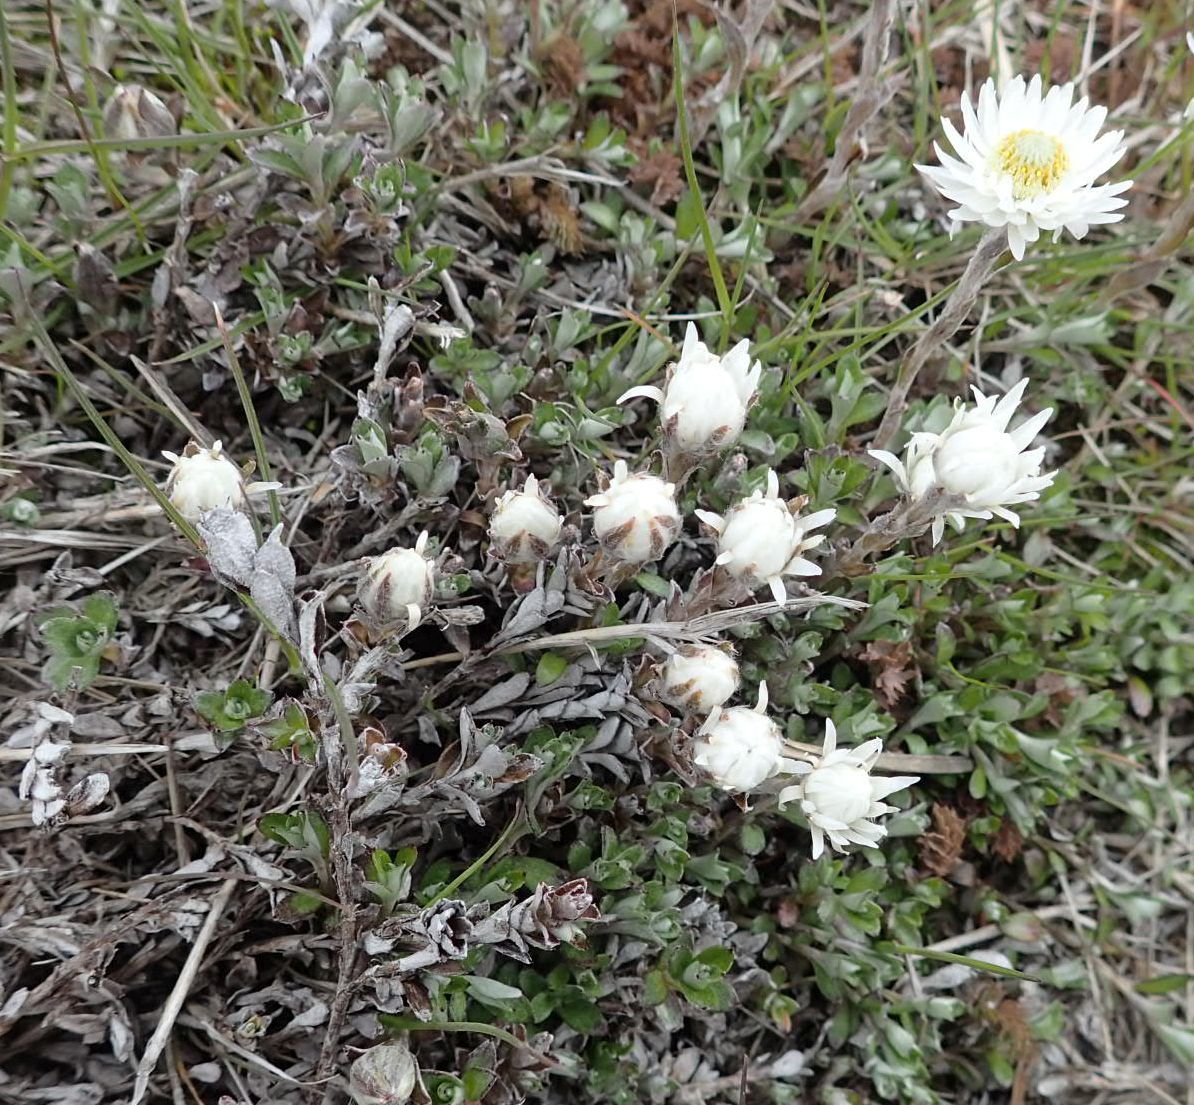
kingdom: Plantae
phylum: Tracheophyta
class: Magnoliopsida
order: Asterales
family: Asteraceae
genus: Anaphalioides
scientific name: Anaphalioides bellidioides
